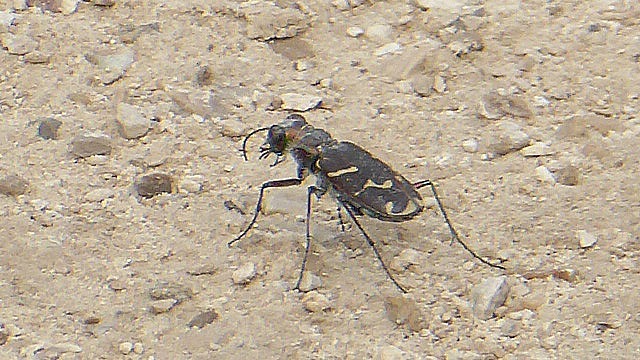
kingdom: Animalia
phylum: Arthropoda
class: Insecta
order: Coleoptera
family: Carabidae
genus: Cicindela
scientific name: Cicindela tranquebarica
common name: Oblique-lined tiger beetle
